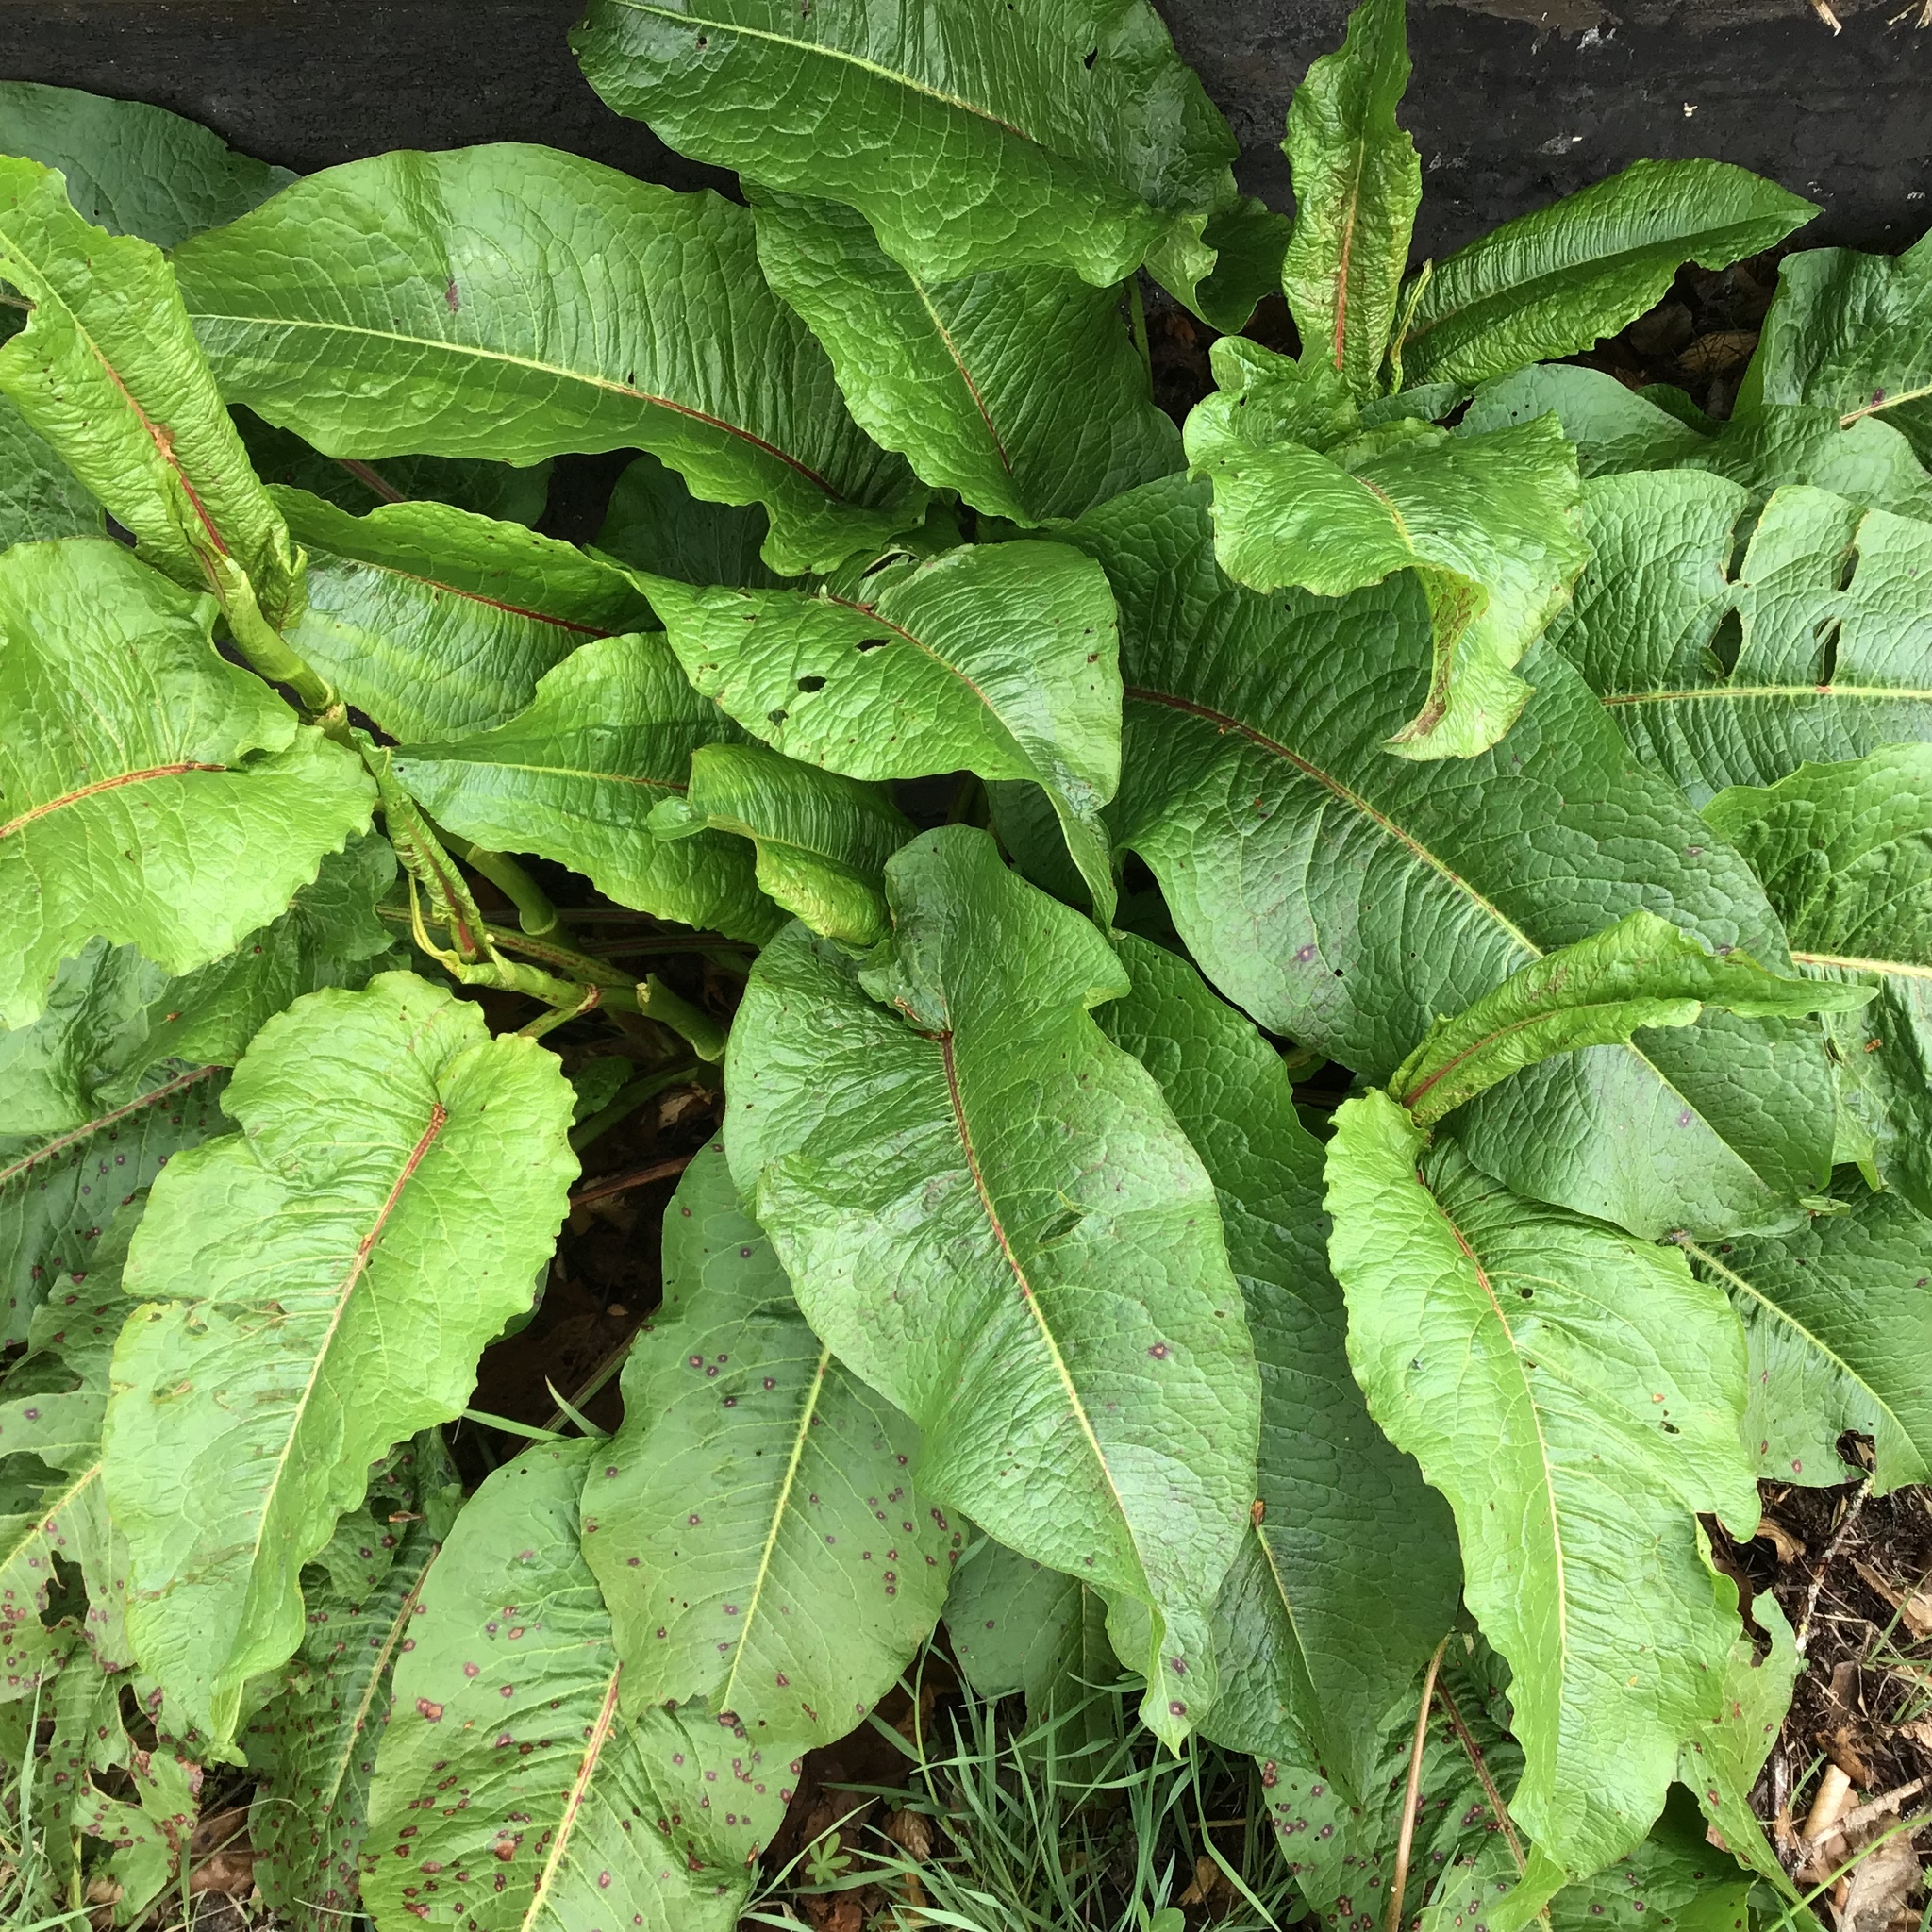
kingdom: Plantae
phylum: Tracheophyta
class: Magnoliopsida
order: Caryophyllales
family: Polygonaceae
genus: Rumex
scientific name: Rumex obtusifolius
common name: Bitter dock
